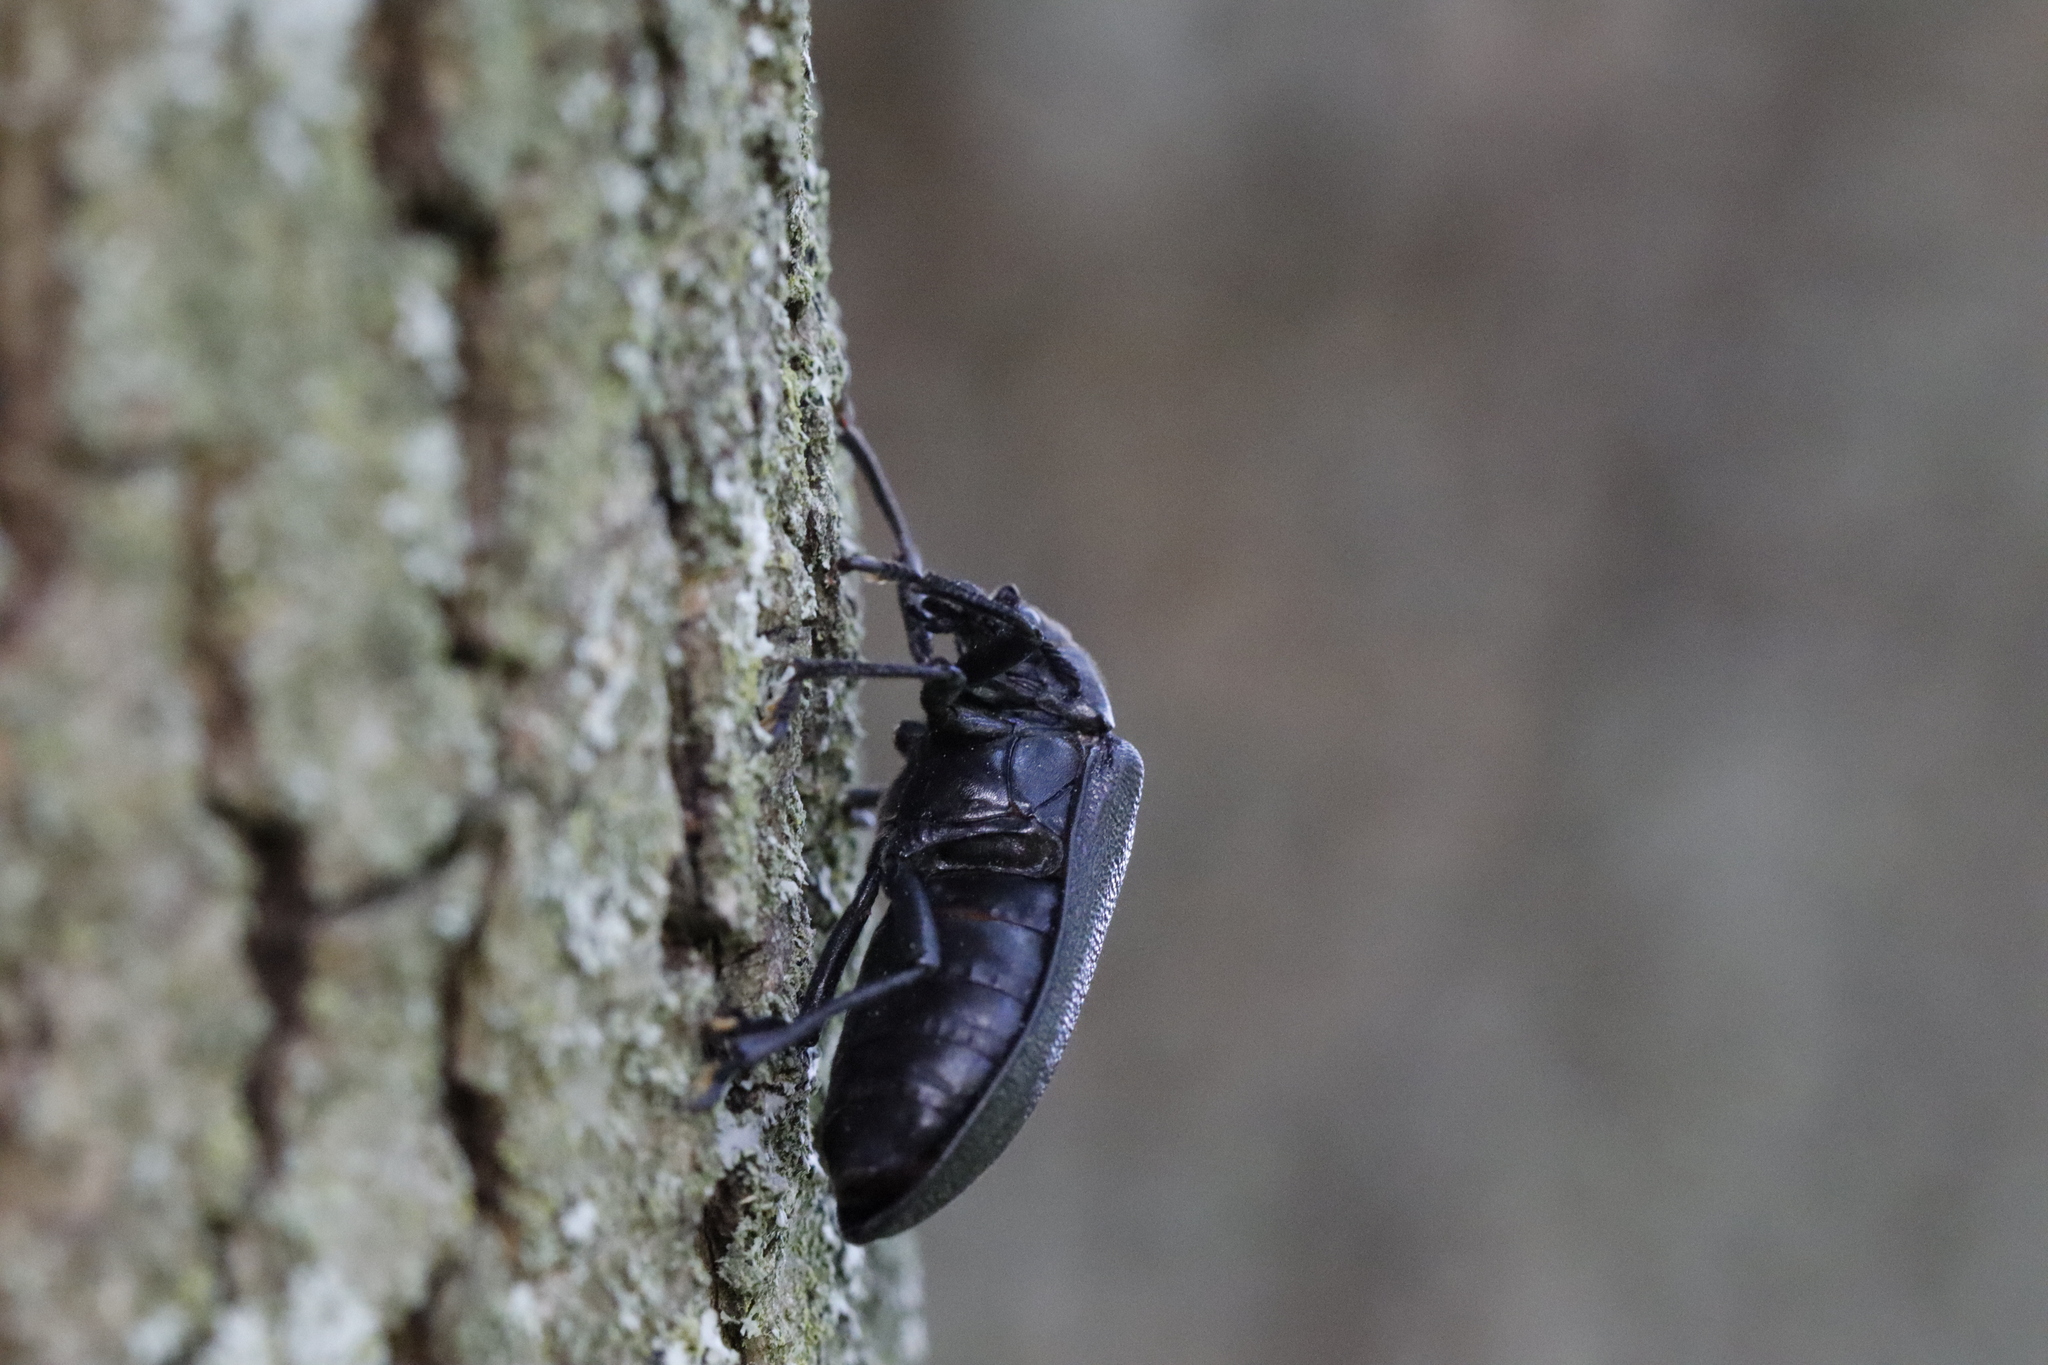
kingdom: Animalia
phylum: Arthropoda
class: Insecta
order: Coleoptera
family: Rhipiceridae
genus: Sandalus
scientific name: Sandalus niger
